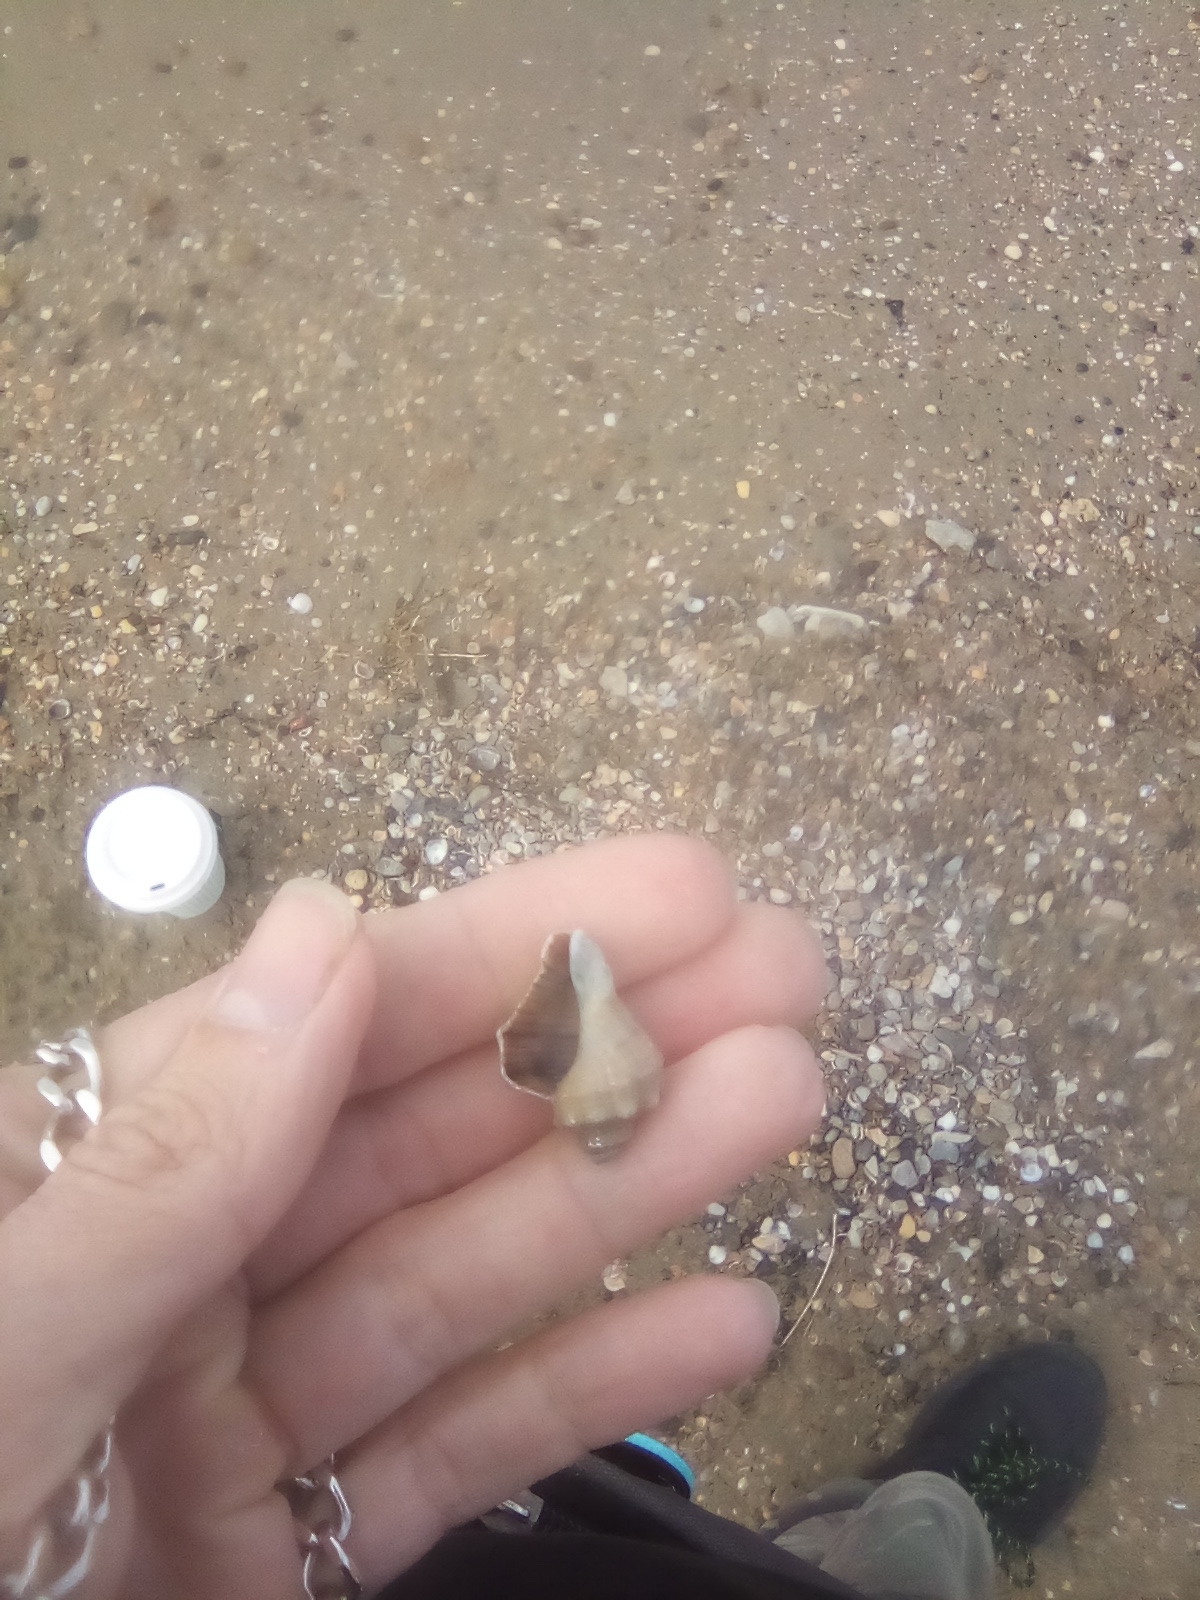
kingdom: Animalia
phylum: Mollusca
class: Gastropoda
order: Neogastropoda
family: Muricidae
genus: Rapana
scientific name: Rapana venosa
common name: Veined rapa whelk
